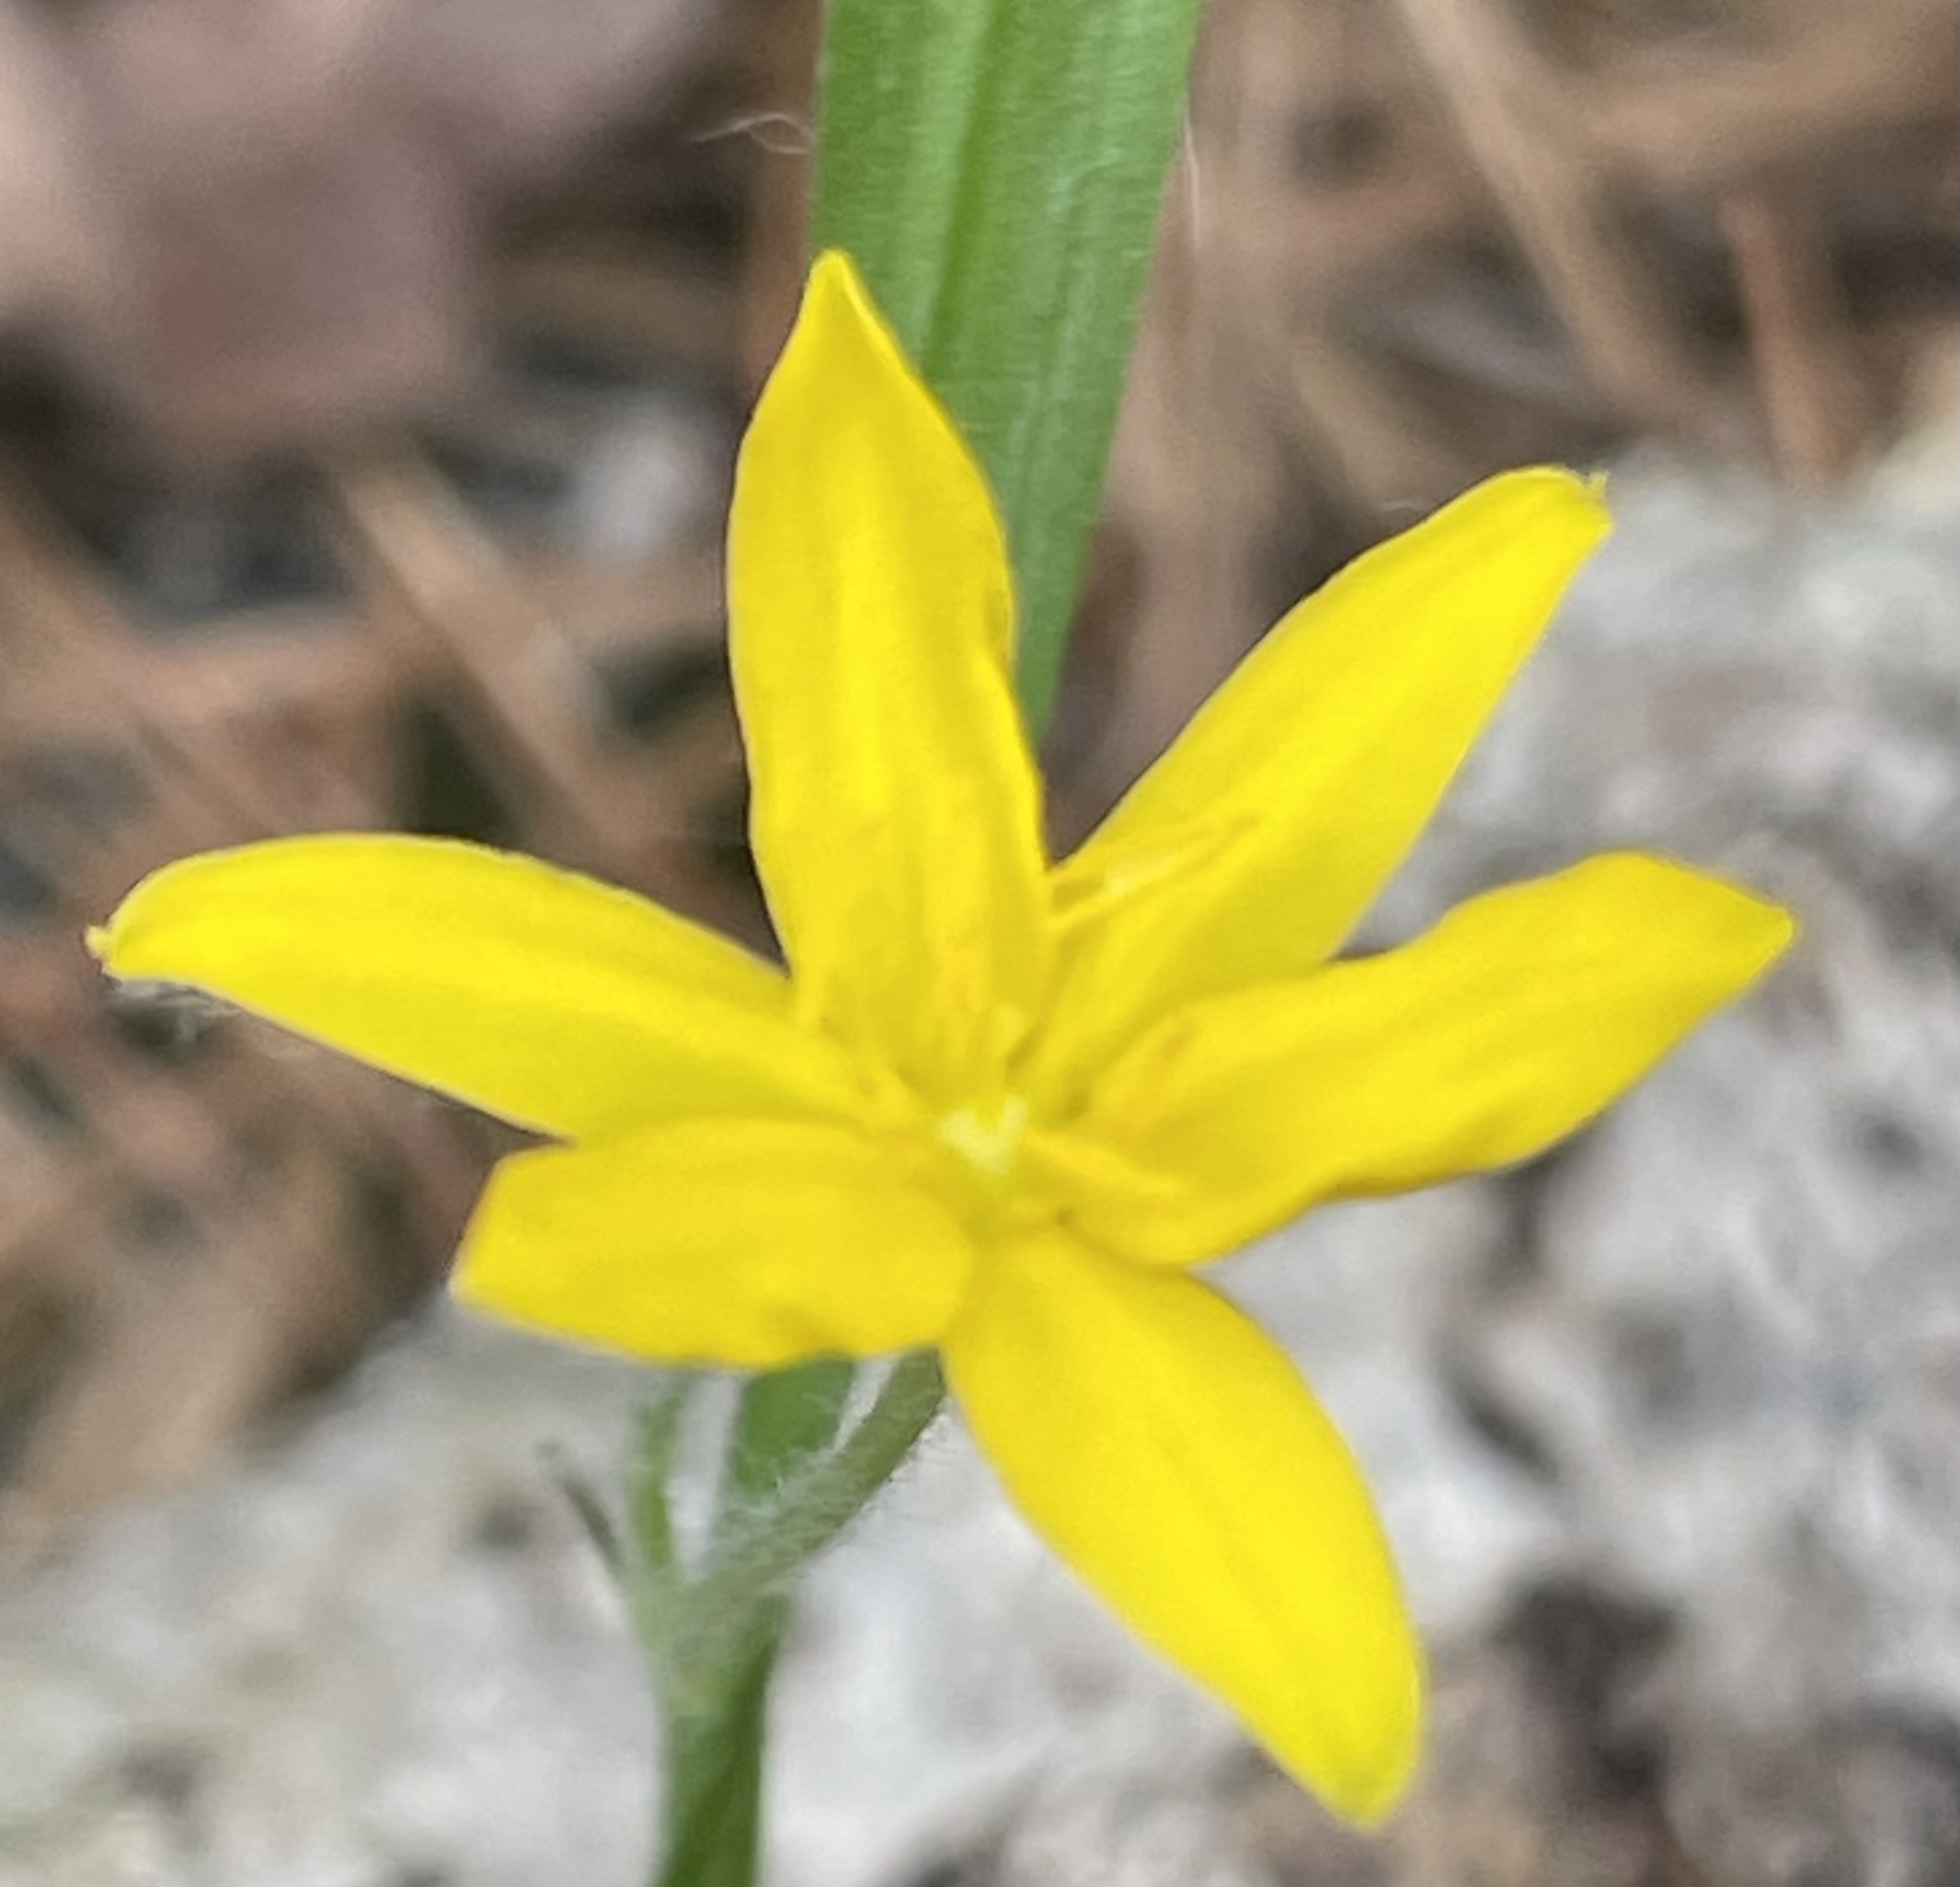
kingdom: Plantae
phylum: Tracheophyta
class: Liliopsida
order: Asparagales
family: Hypoxidaceae
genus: Hypoxis
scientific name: Hypoxis hirsuta
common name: Common goldstar
